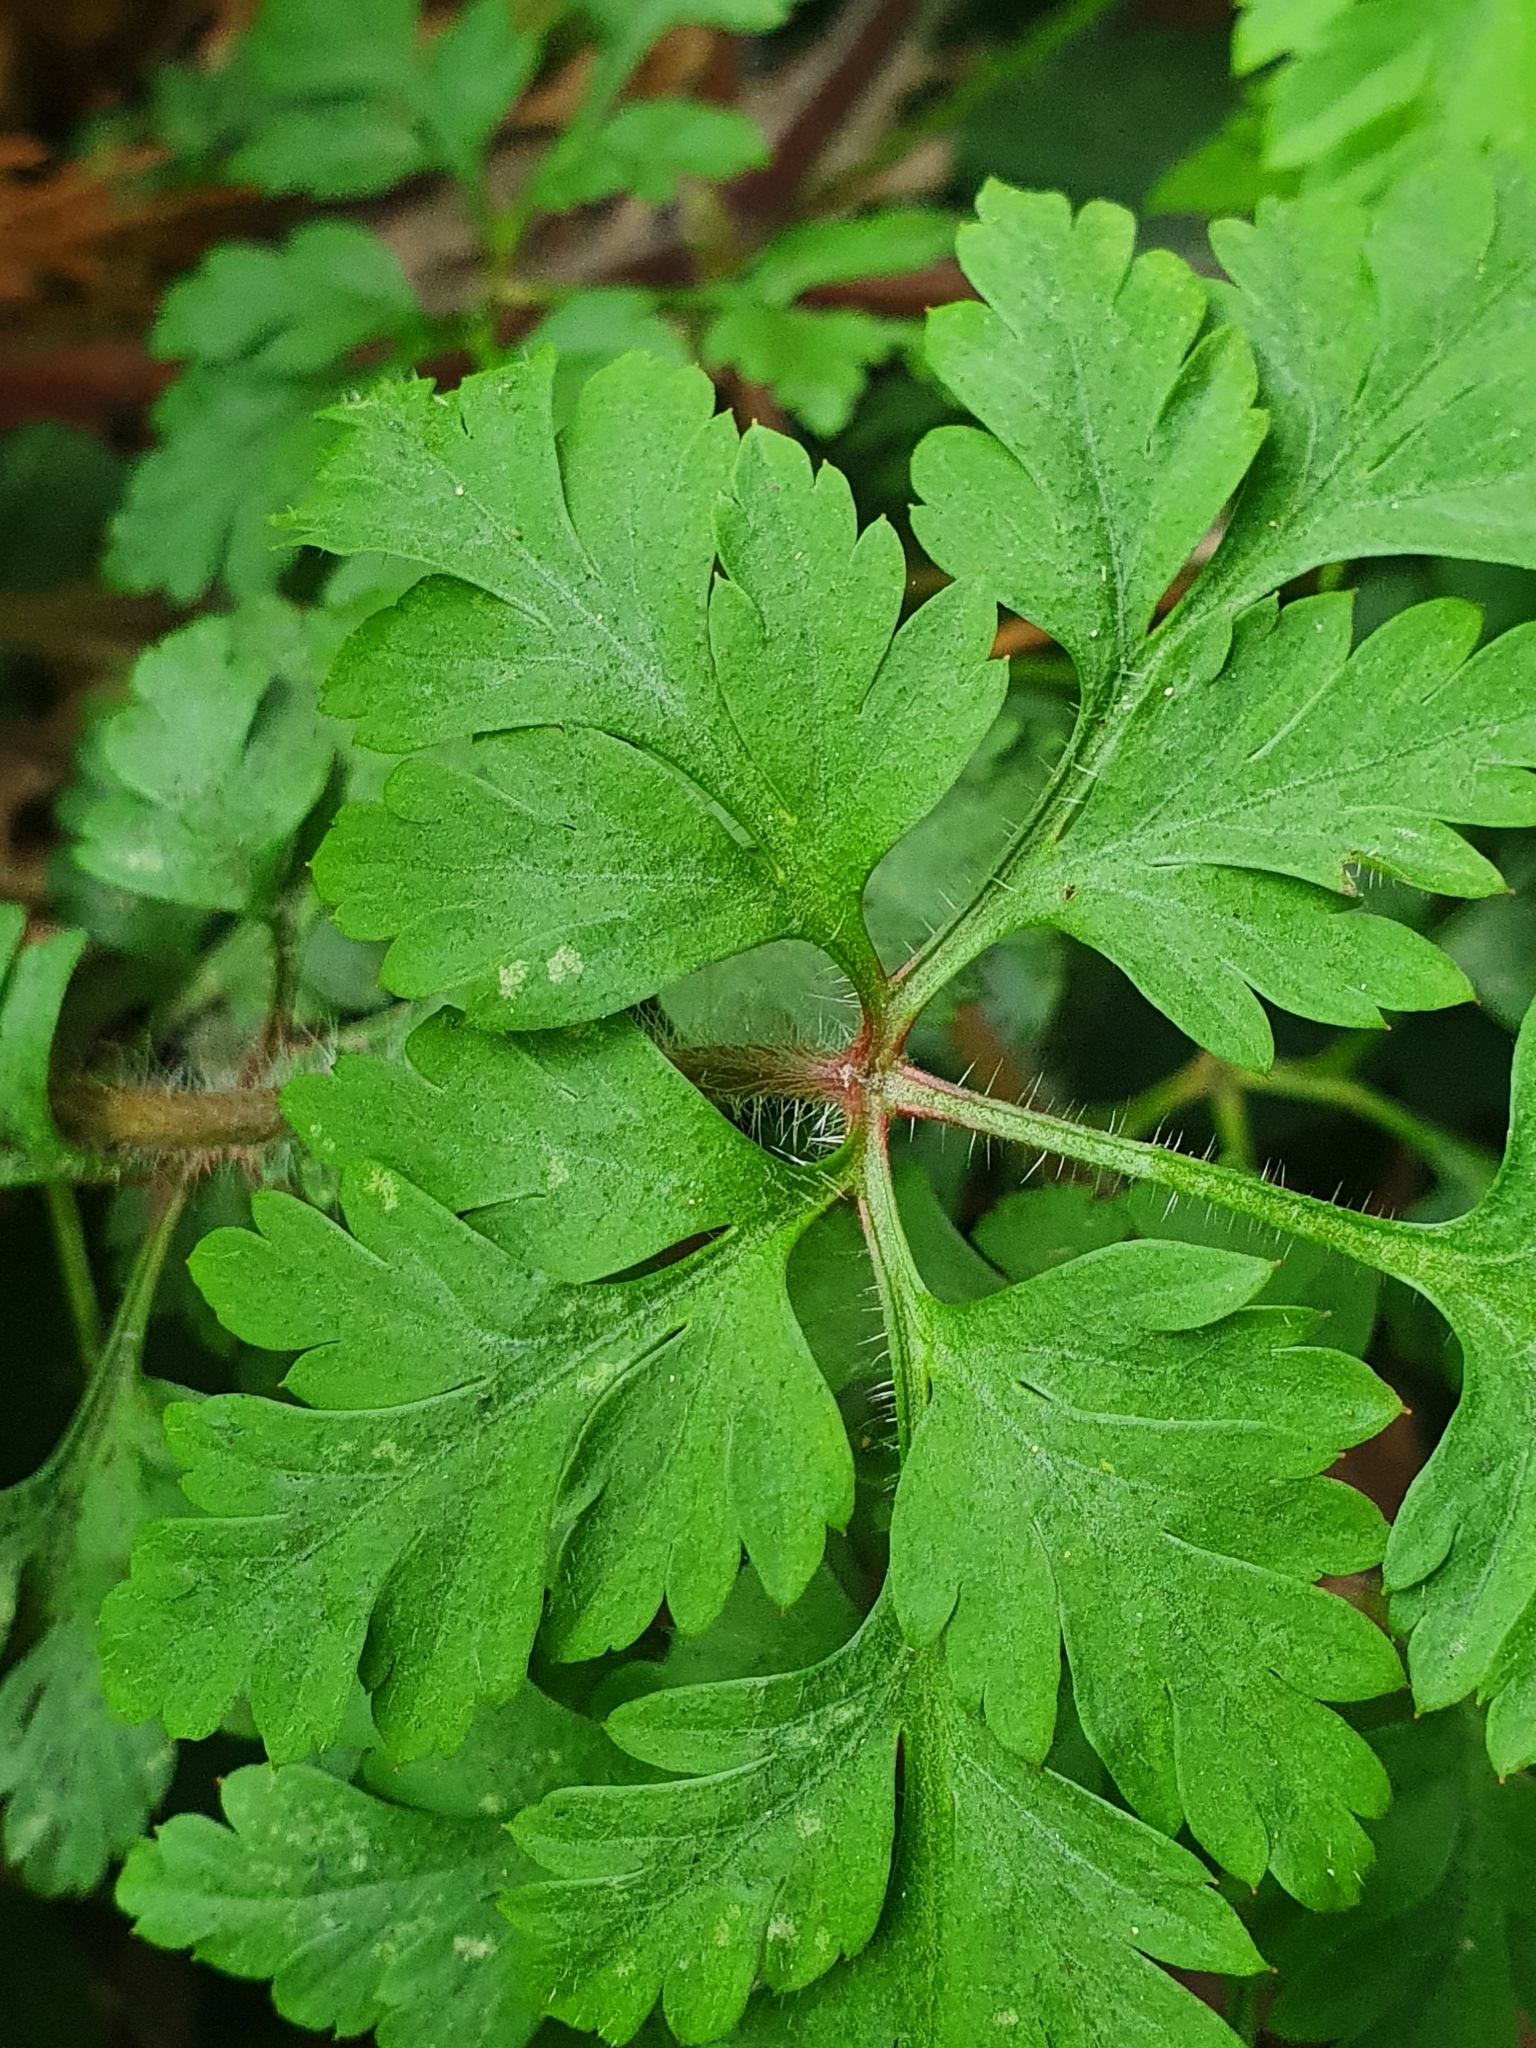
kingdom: Plantae
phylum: Tracheophyta
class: Magnoliopsida
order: Geraniales
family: Geraniaceae
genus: Geranium
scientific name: Geranium robertianum
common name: Herb-robert
